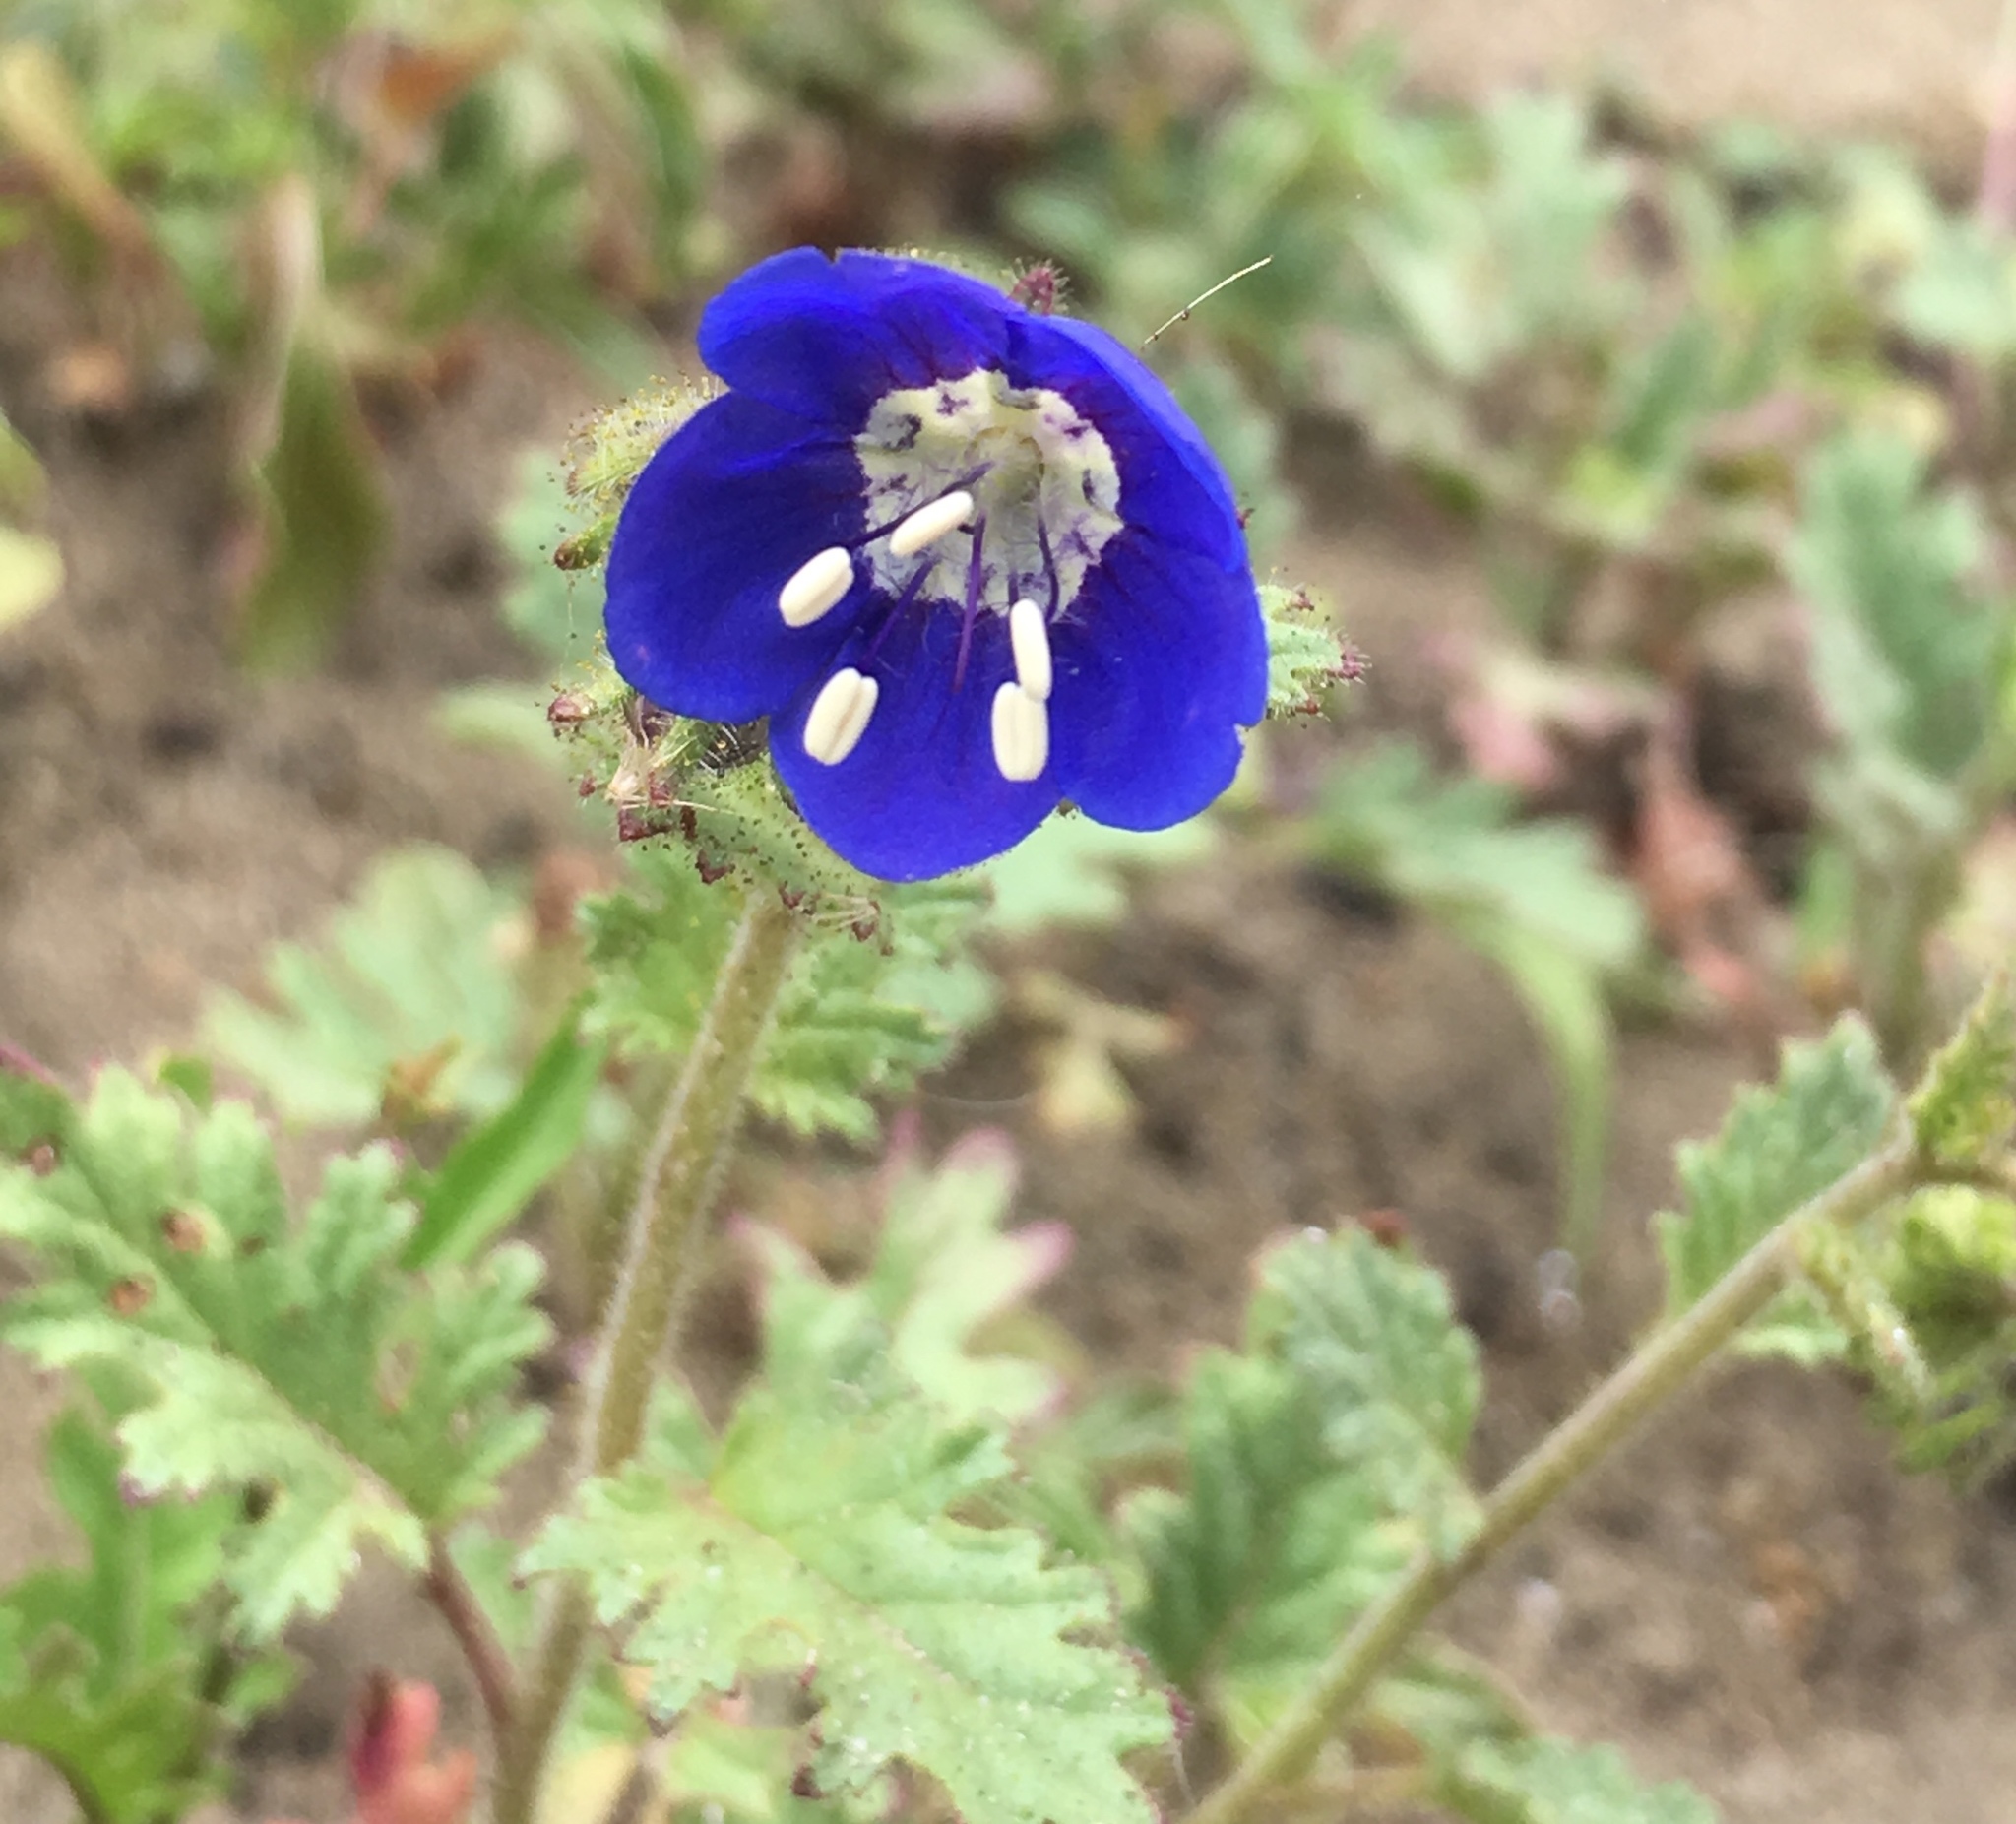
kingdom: Plantae
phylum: Tracheophyta
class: Magnoliopsida
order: Boraginales
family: Hydrophyllaceae
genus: Phacelia
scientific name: Phacelia viscida
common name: Sticky phacelia
